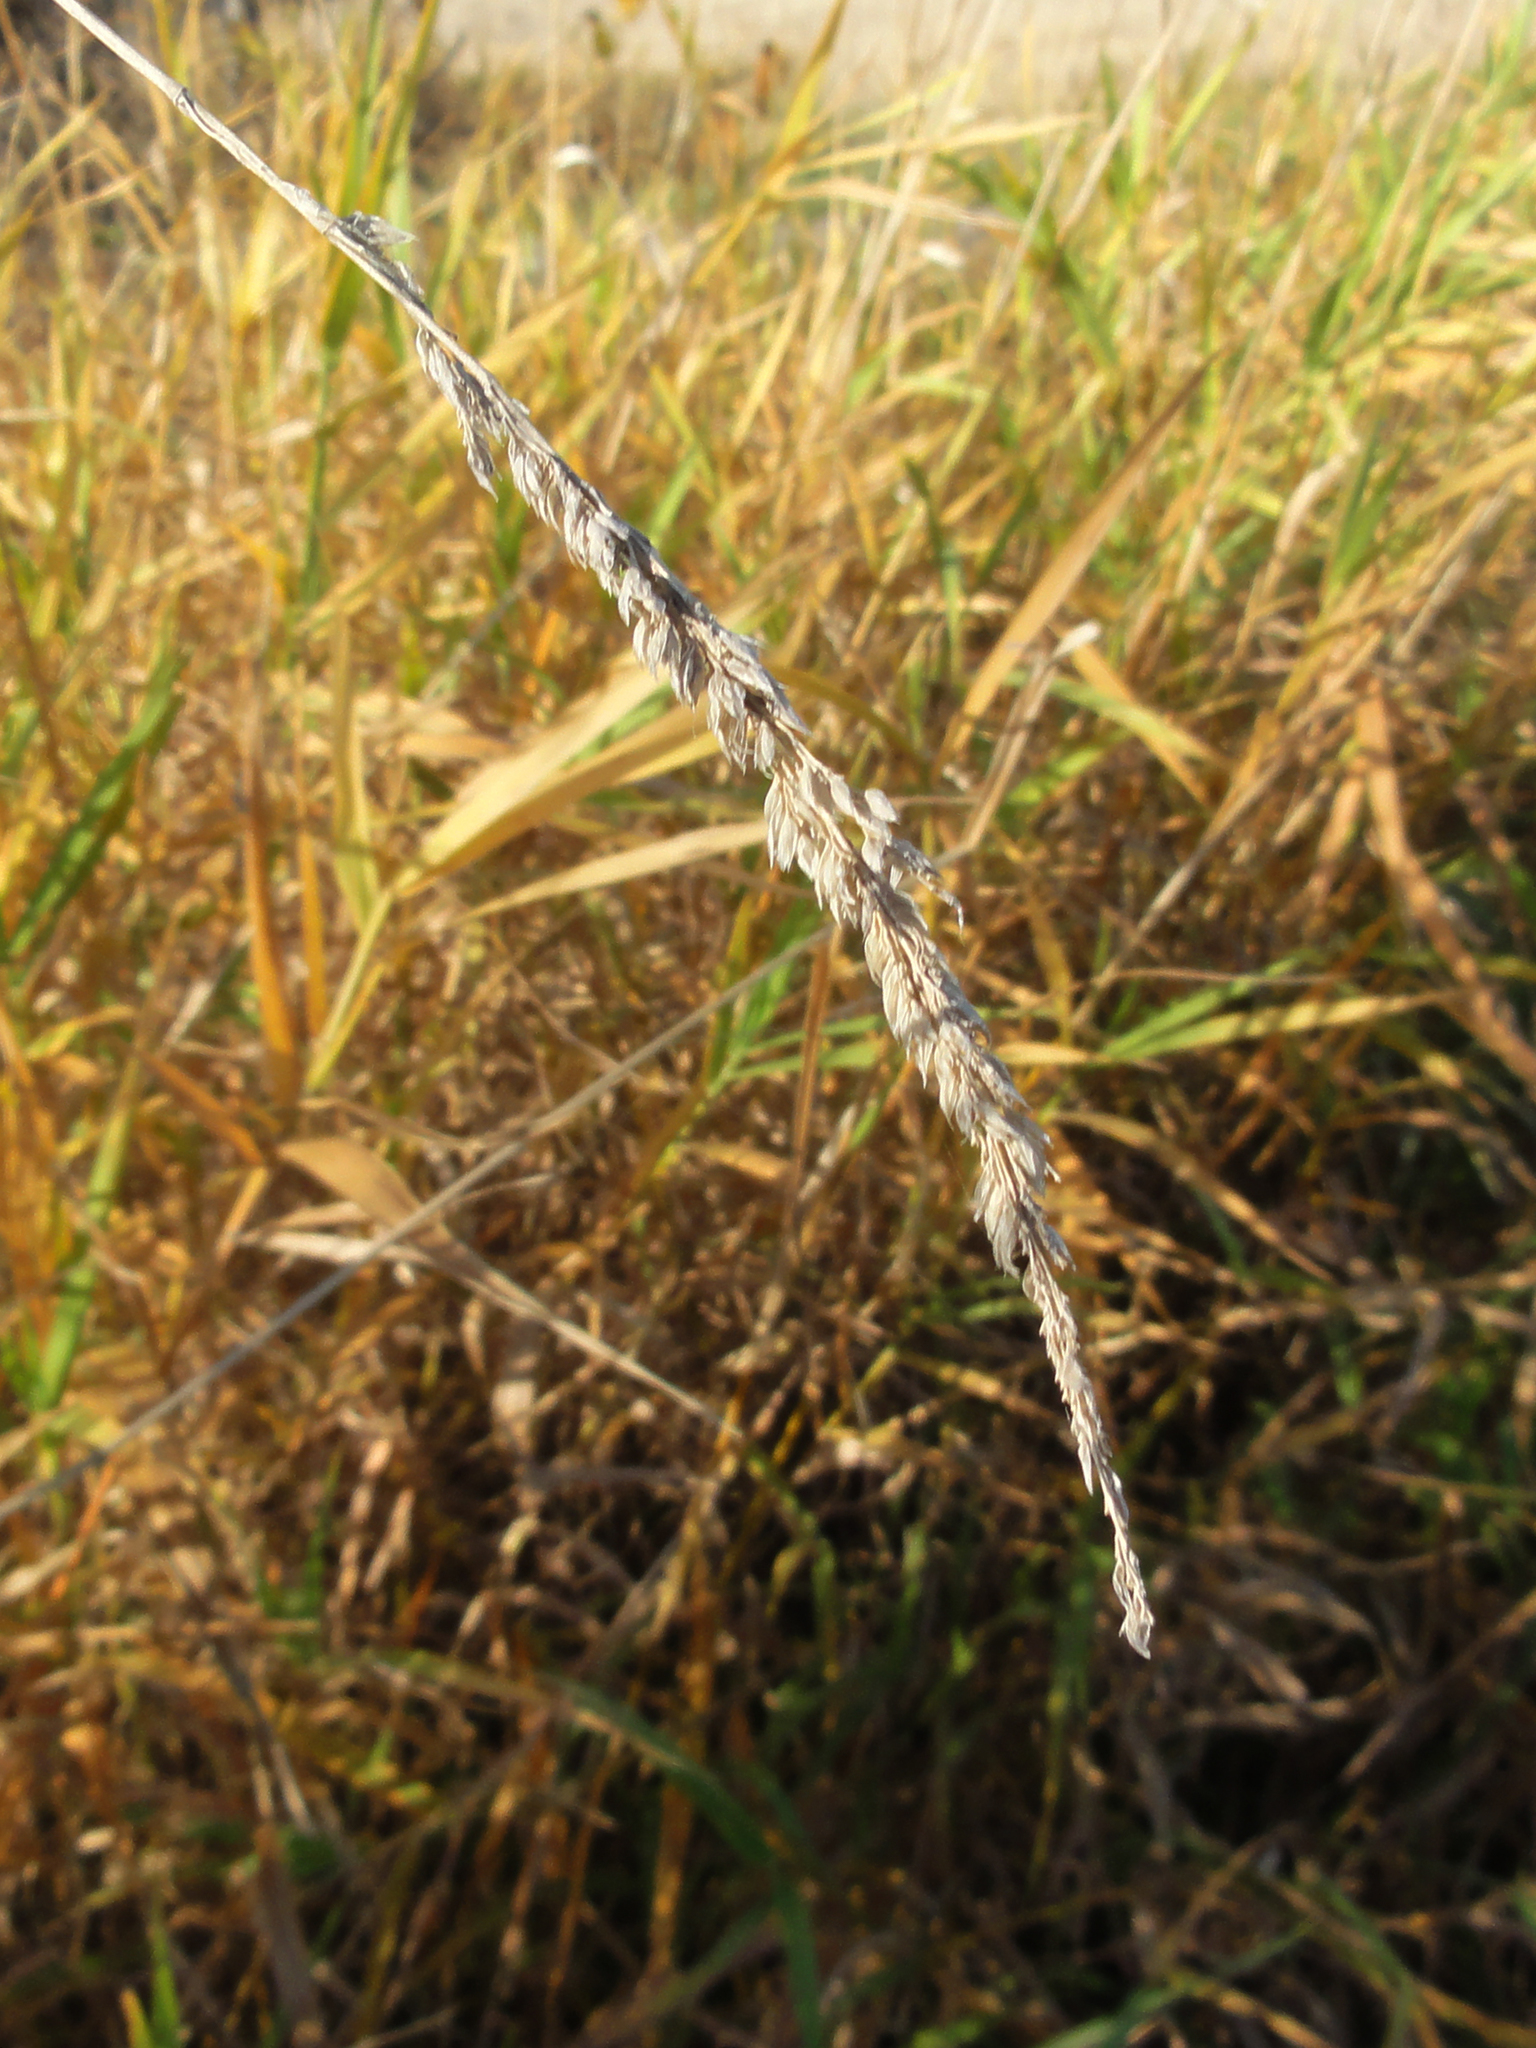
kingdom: Plantae
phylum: Tracheophyta
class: Liliopsida
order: Poales
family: Poaceae
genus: Phalaris
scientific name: Phalaris arundinacea
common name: Reed canary-grass
